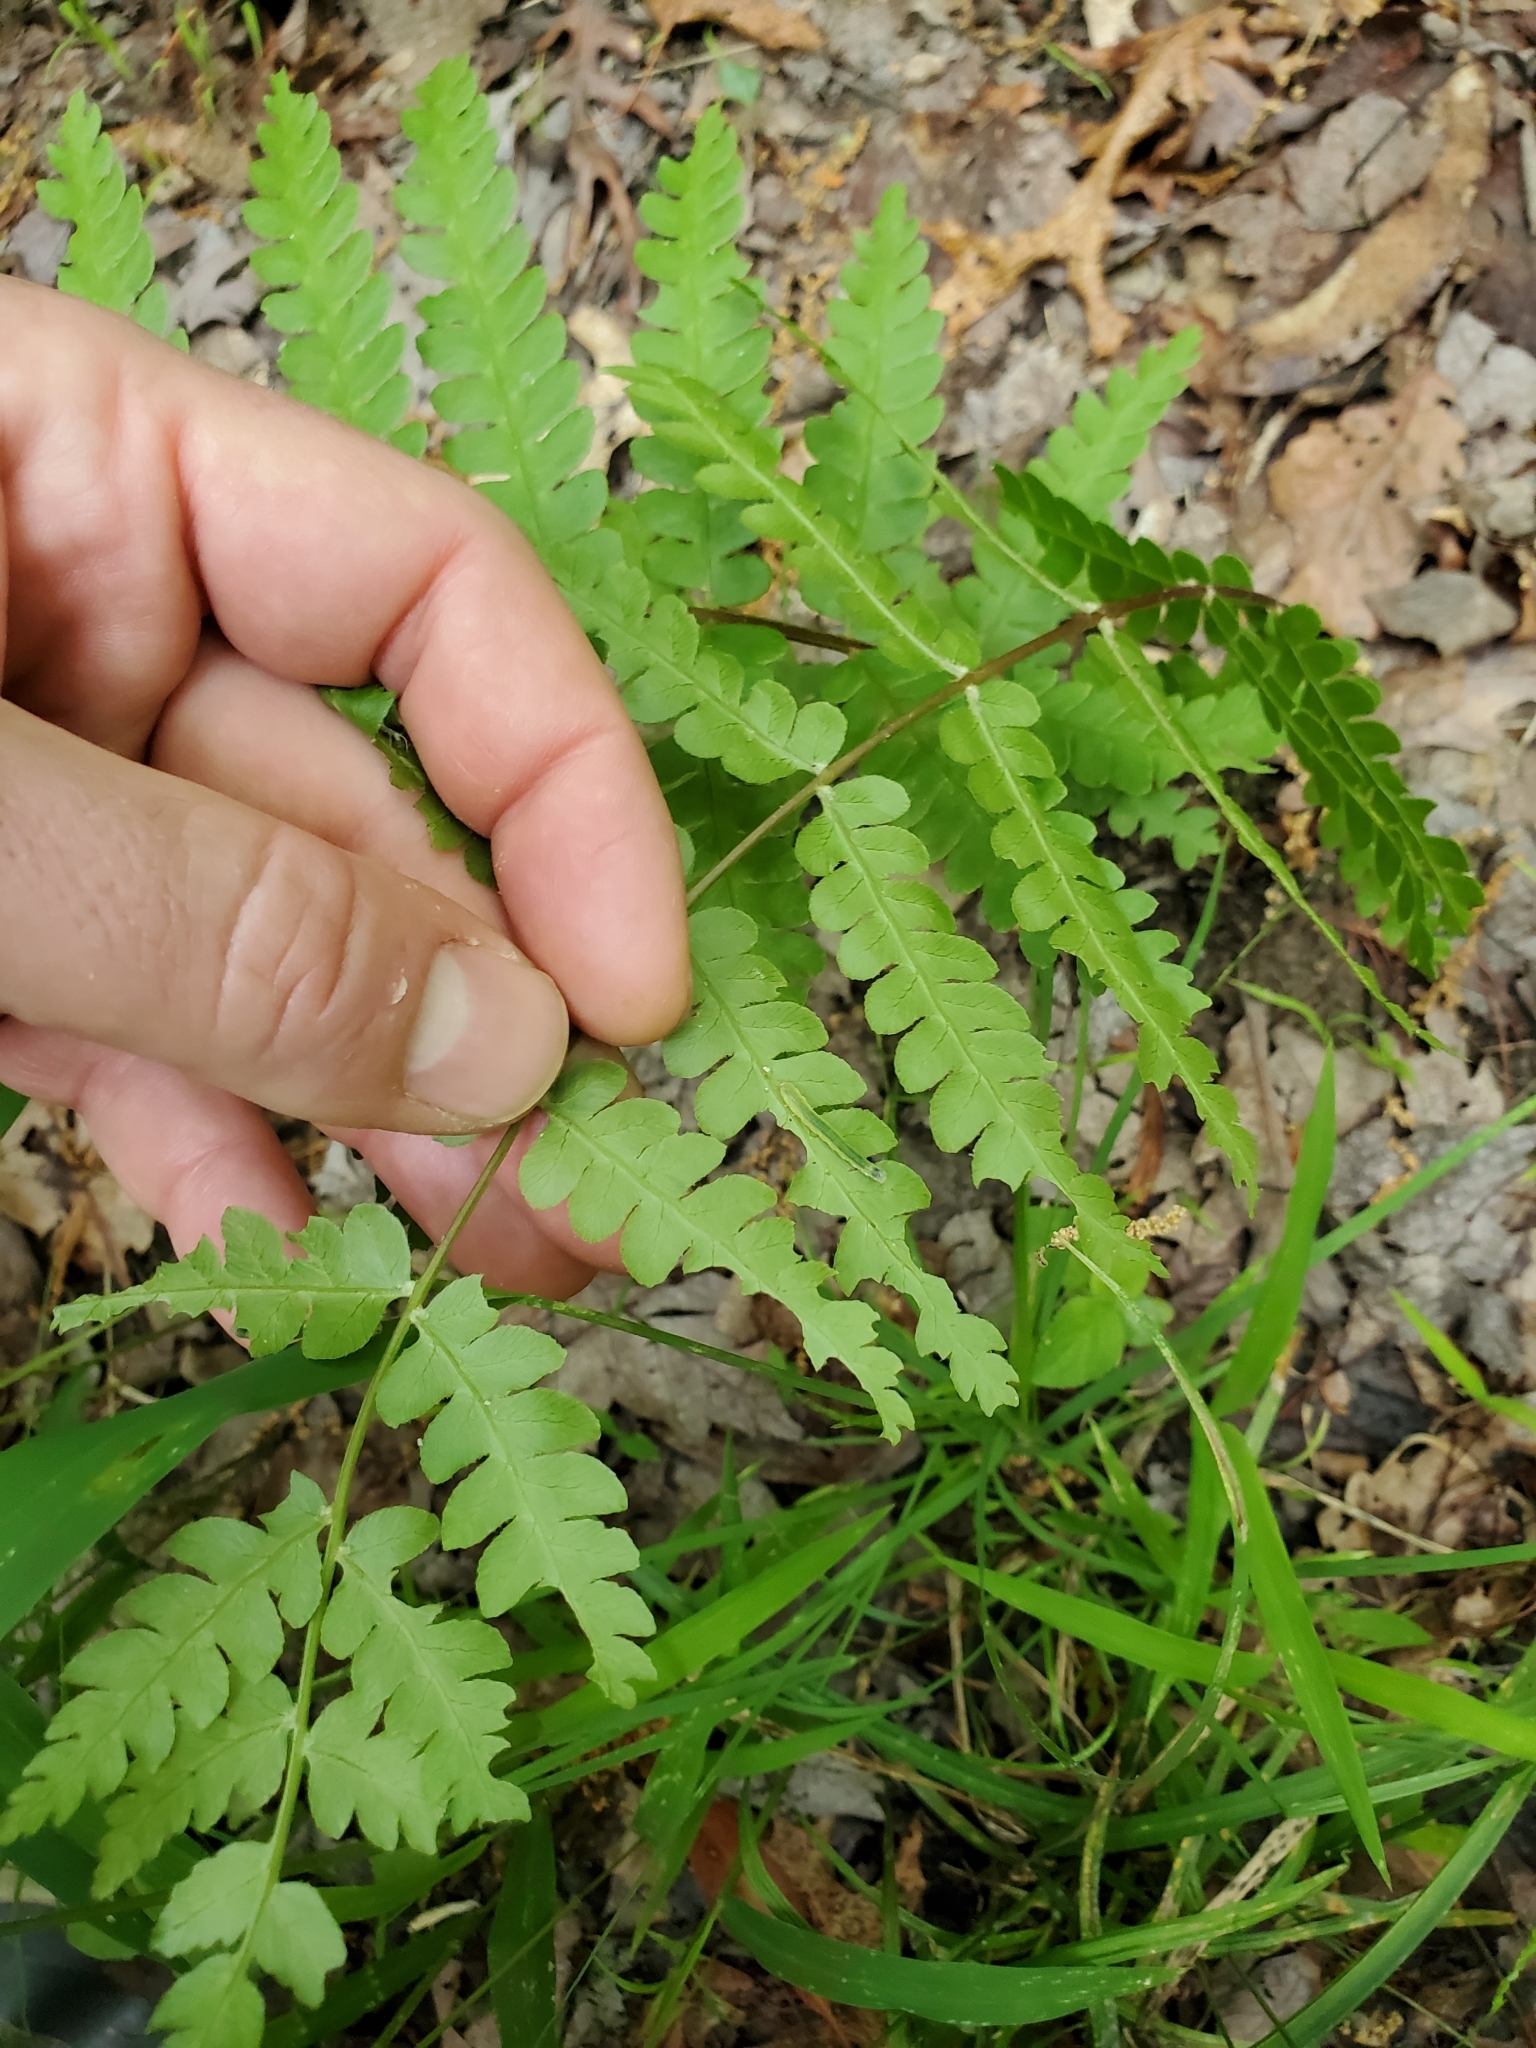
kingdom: Plantae
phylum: Tracheophyta
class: Polypodiopsida
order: Osmundales
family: Osmundaceae
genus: Osmundastrum
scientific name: Osmundastrum cinnamomeum
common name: Cinnamon fern
